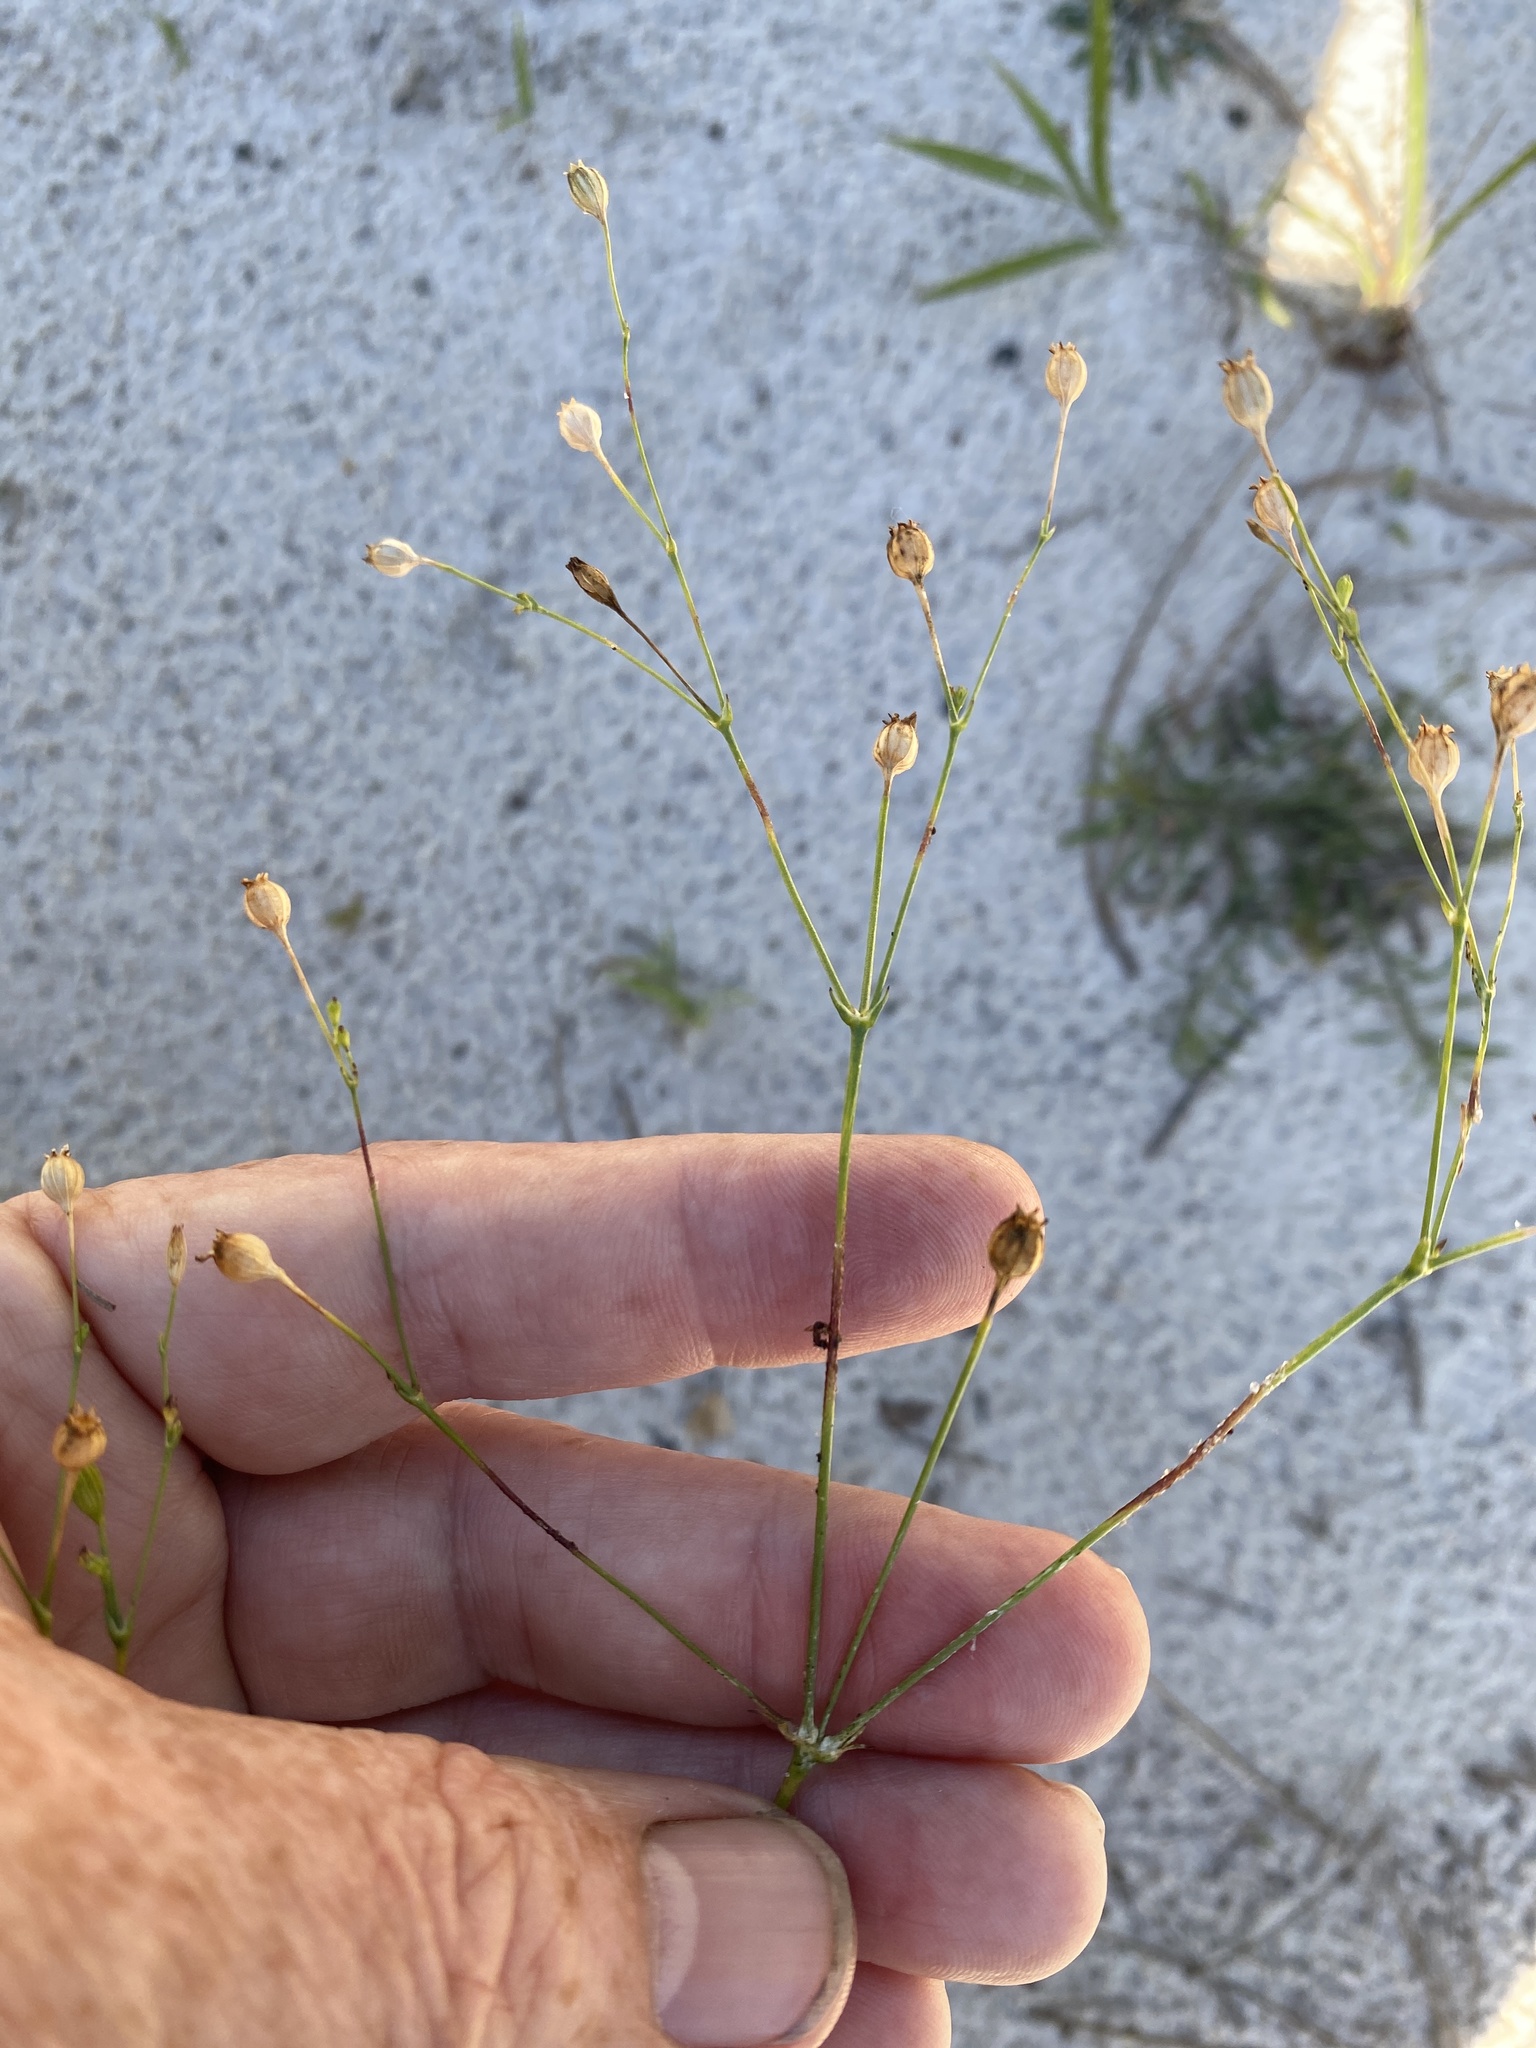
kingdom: Plantae
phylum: Tracheophyta
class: Magnoliopsida
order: Caryophyllales
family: Caryophyllaceae
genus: Silene
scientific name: Silene antirrhina
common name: Sleepy catchfly
